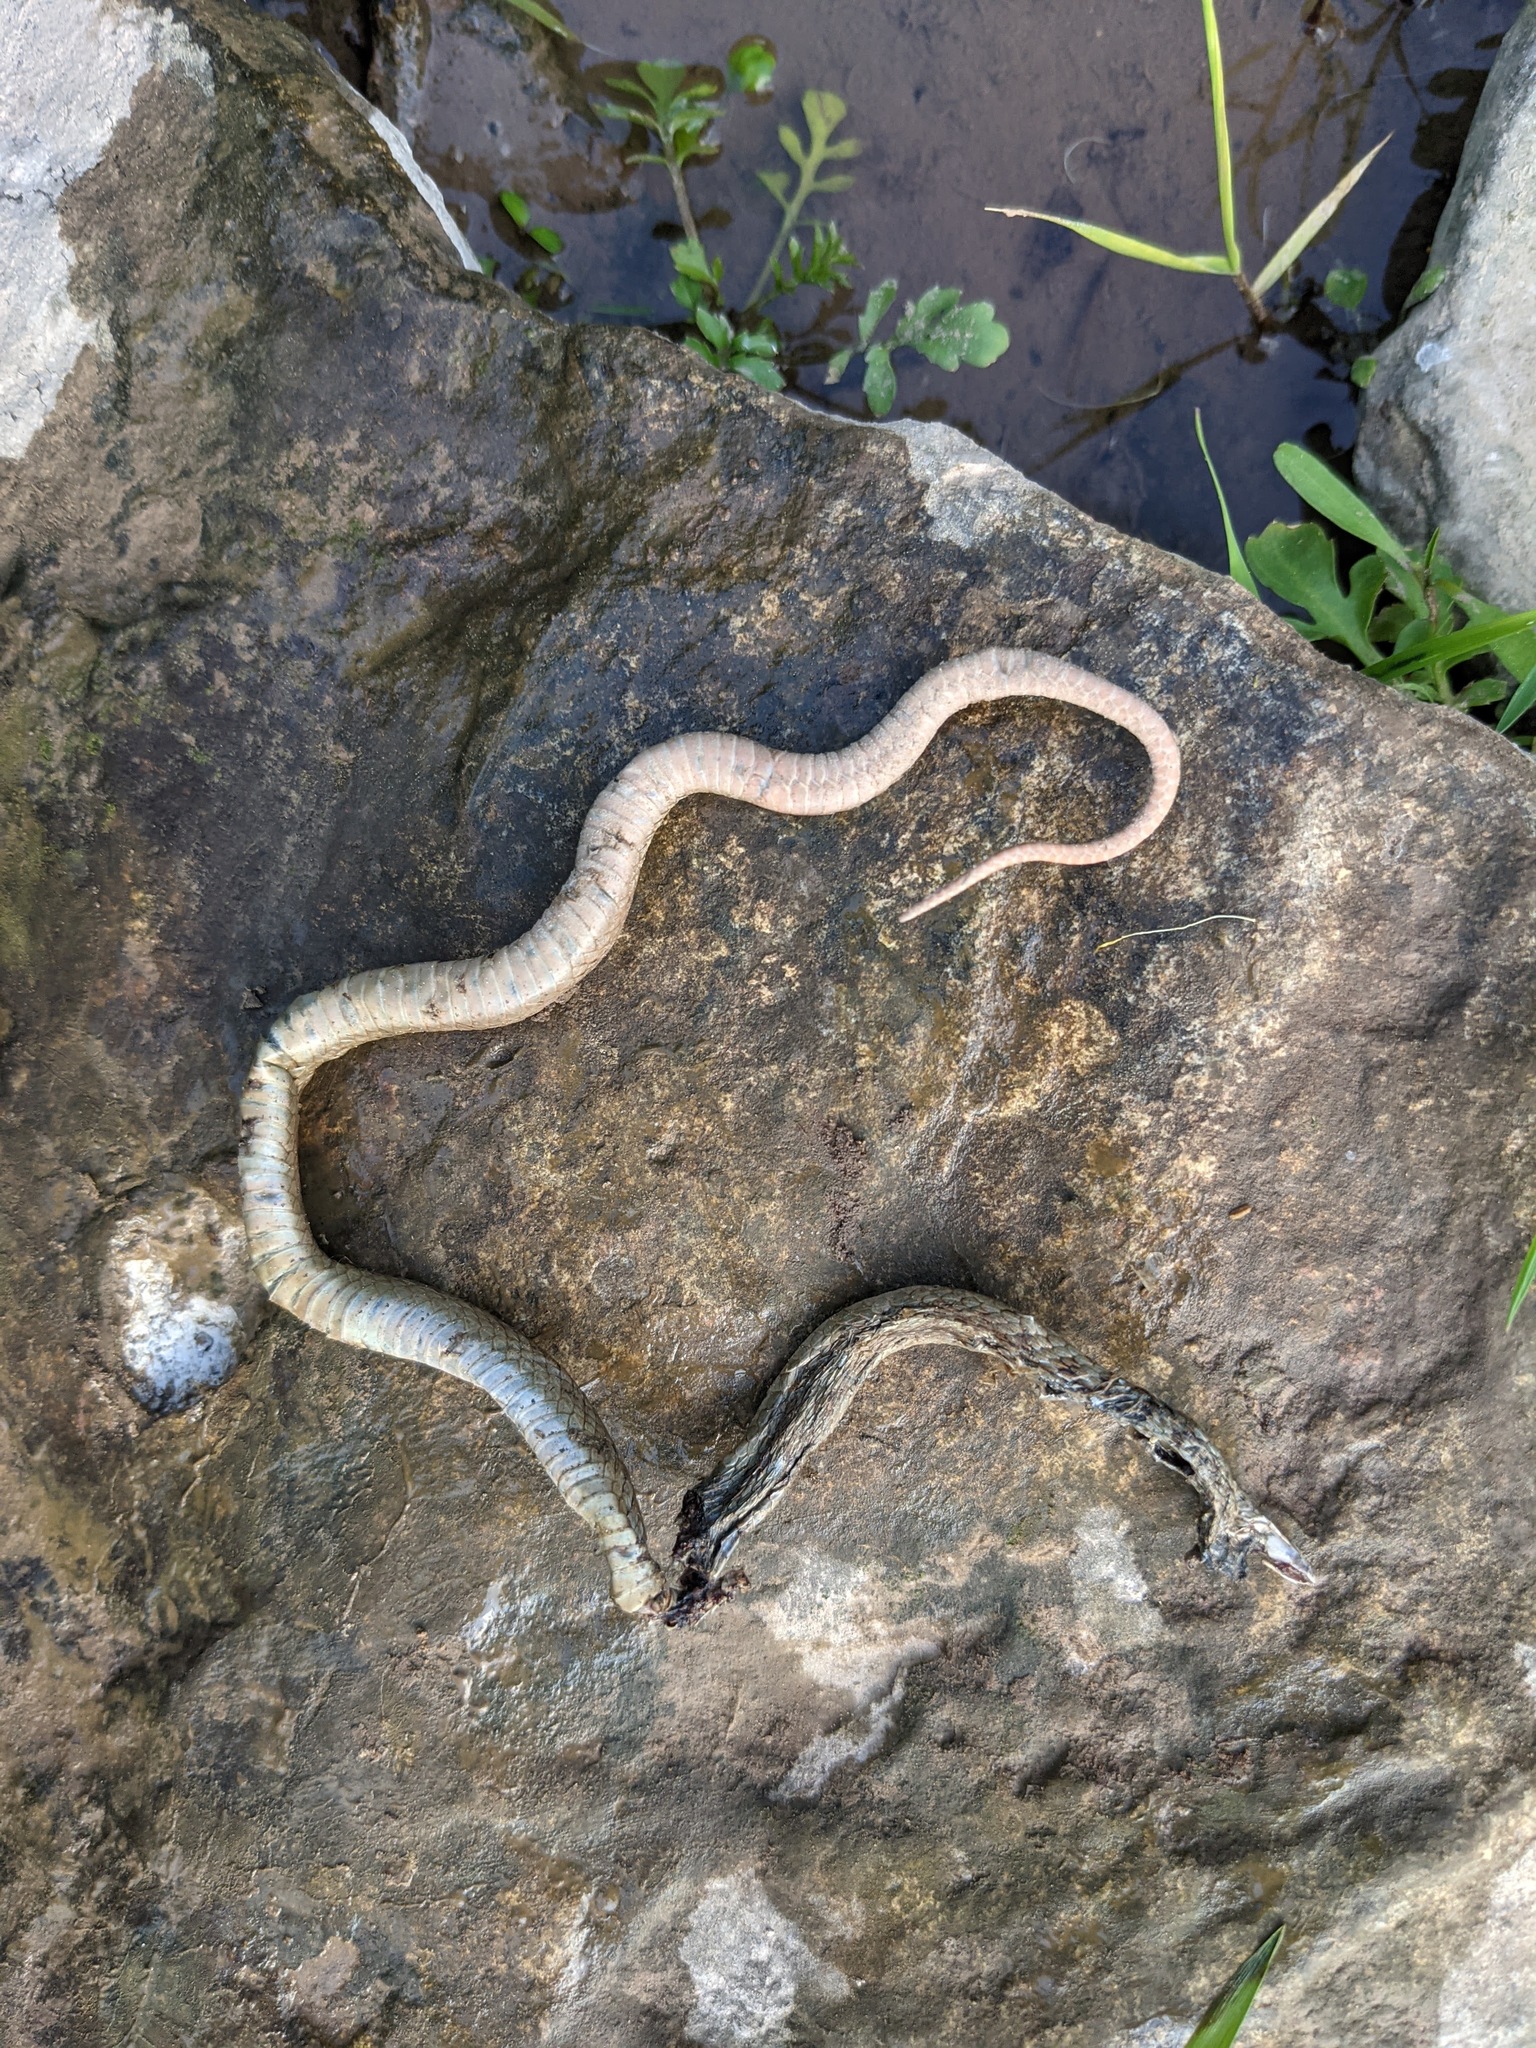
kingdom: Animalia
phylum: Chordata
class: Squamata
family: Colubridae
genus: Storeria
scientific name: Storeria dekayi
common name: (dekay’s) brown snake
